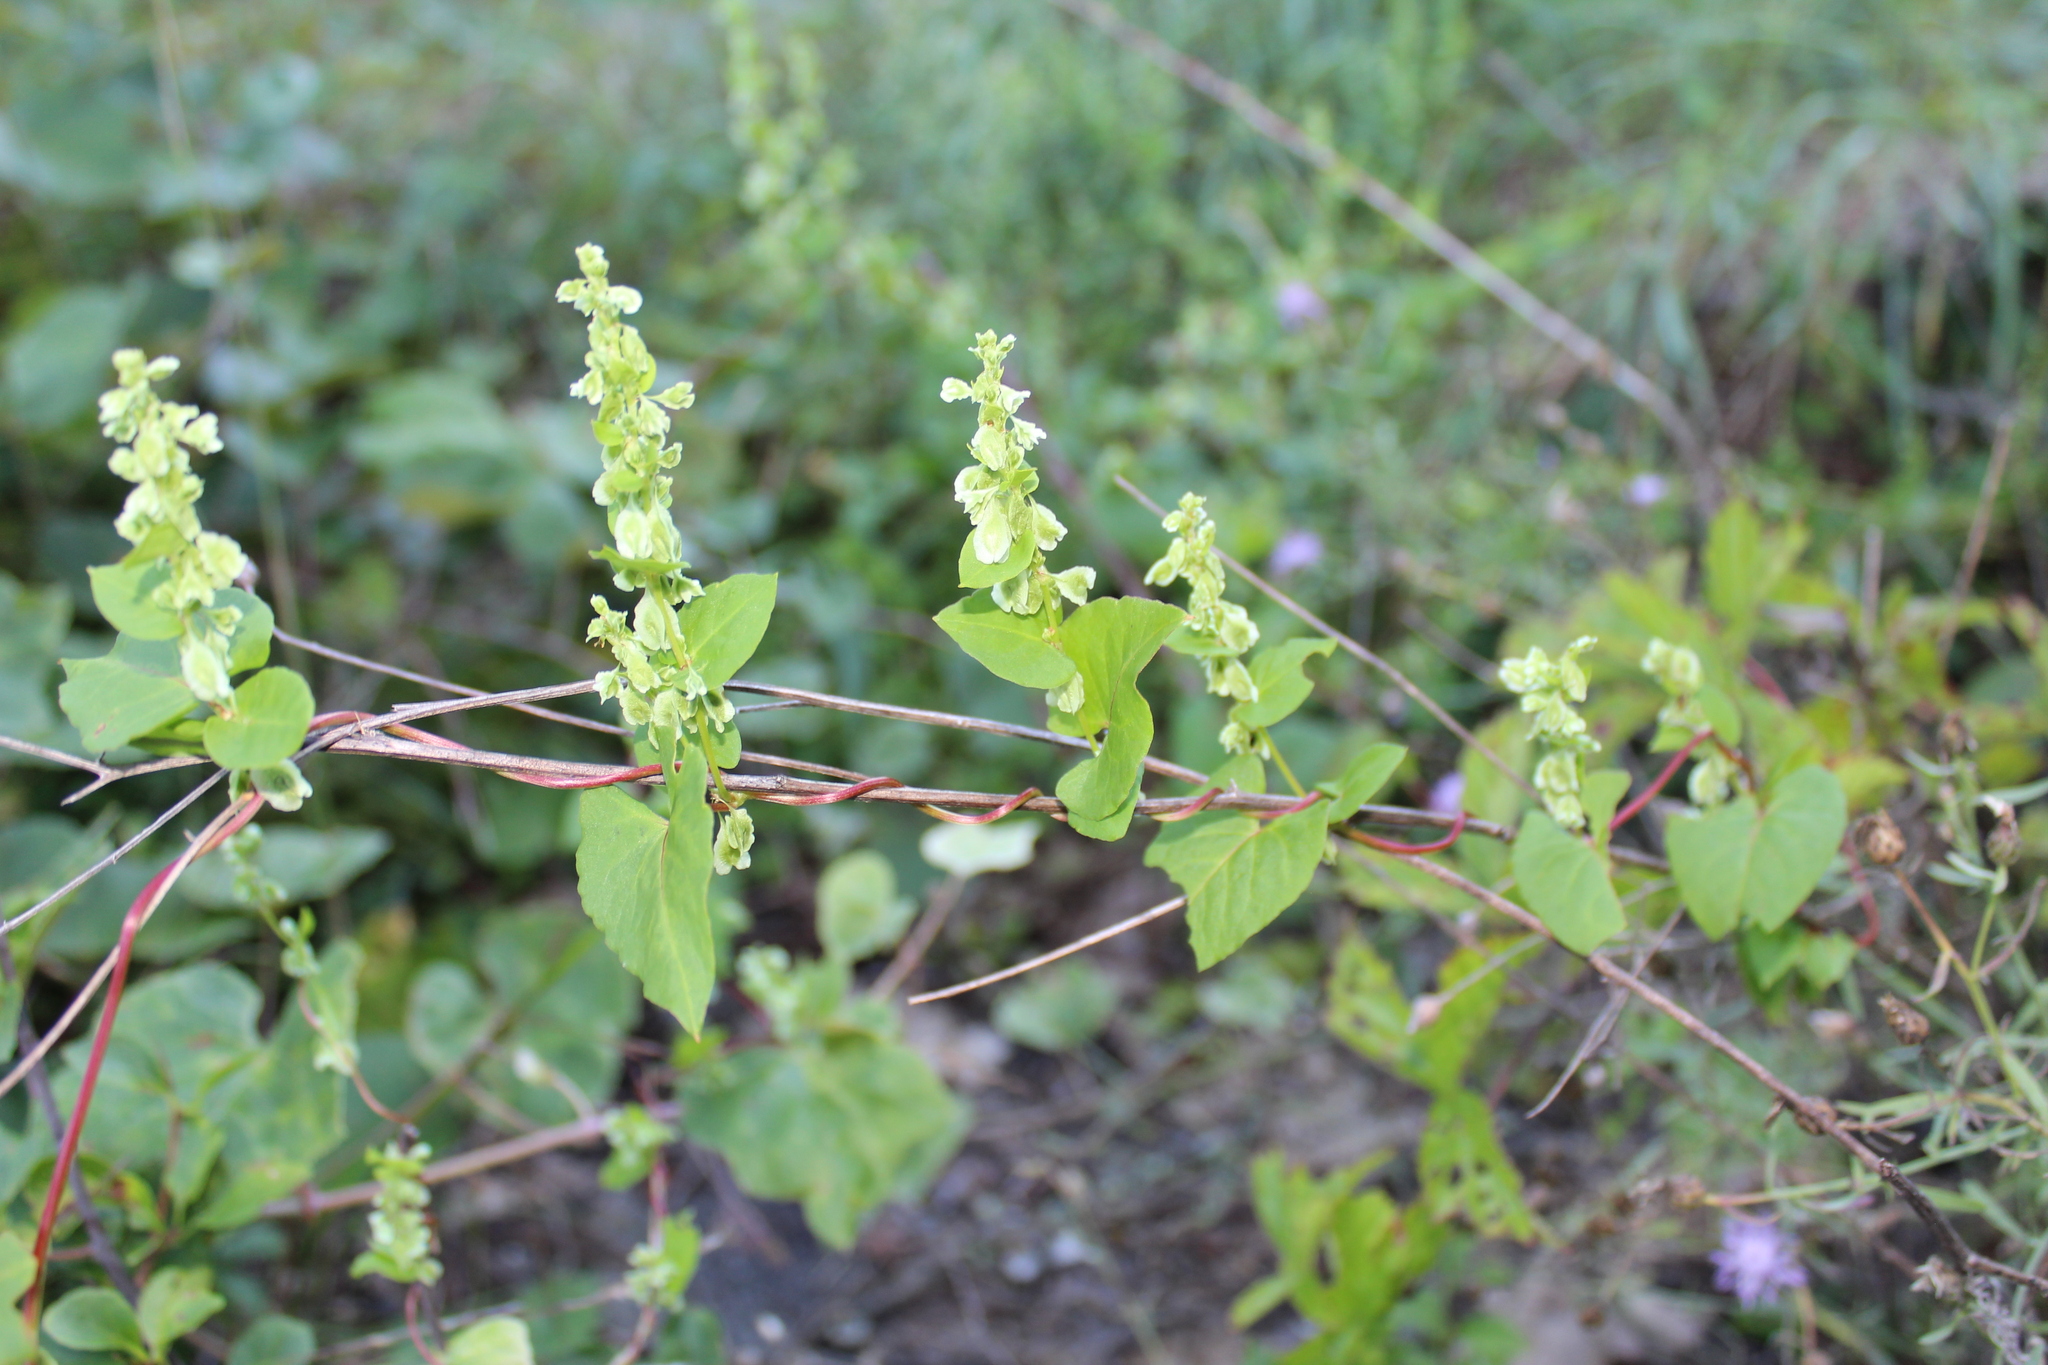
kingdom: Plantae
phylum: Tracheophyta
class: Magnoliopsida
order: Caryophyllales
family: Polygonaceae
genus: Fallopia
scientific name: Fallopia scandens
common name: Climbing false buckwheat
